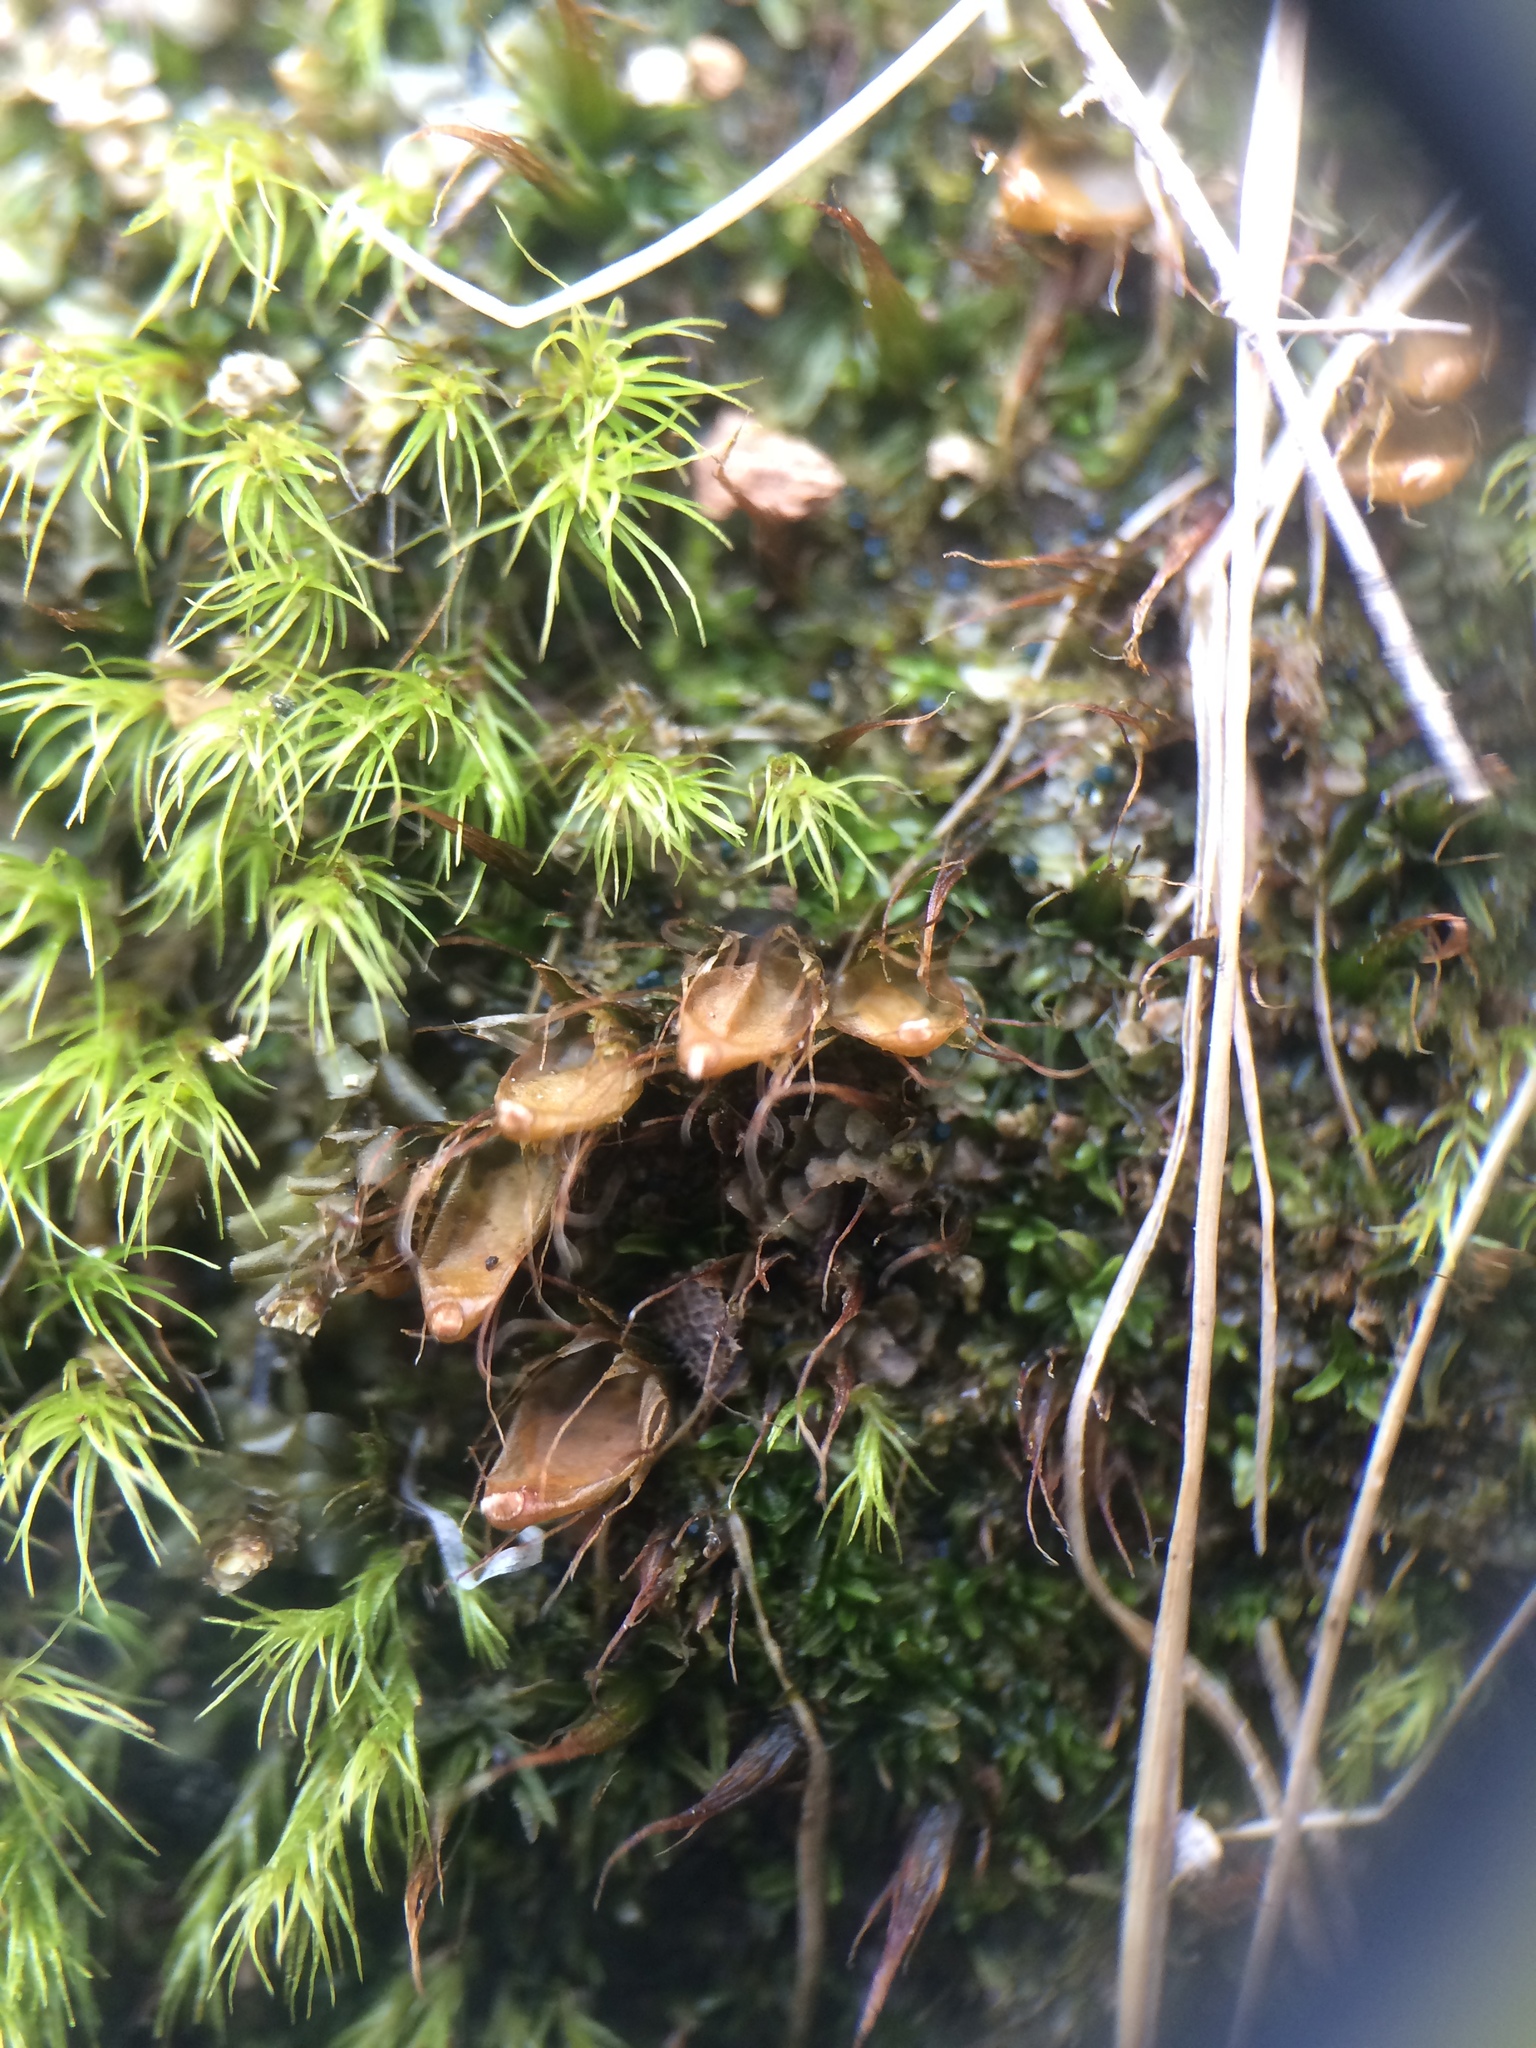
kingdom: Plantae
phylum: Bryophyta
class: Bryopsida
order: Diphysciales
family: Diphysciaceae
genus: Diphyscium
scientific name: Diphyscium foliosum
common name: Nut moss
